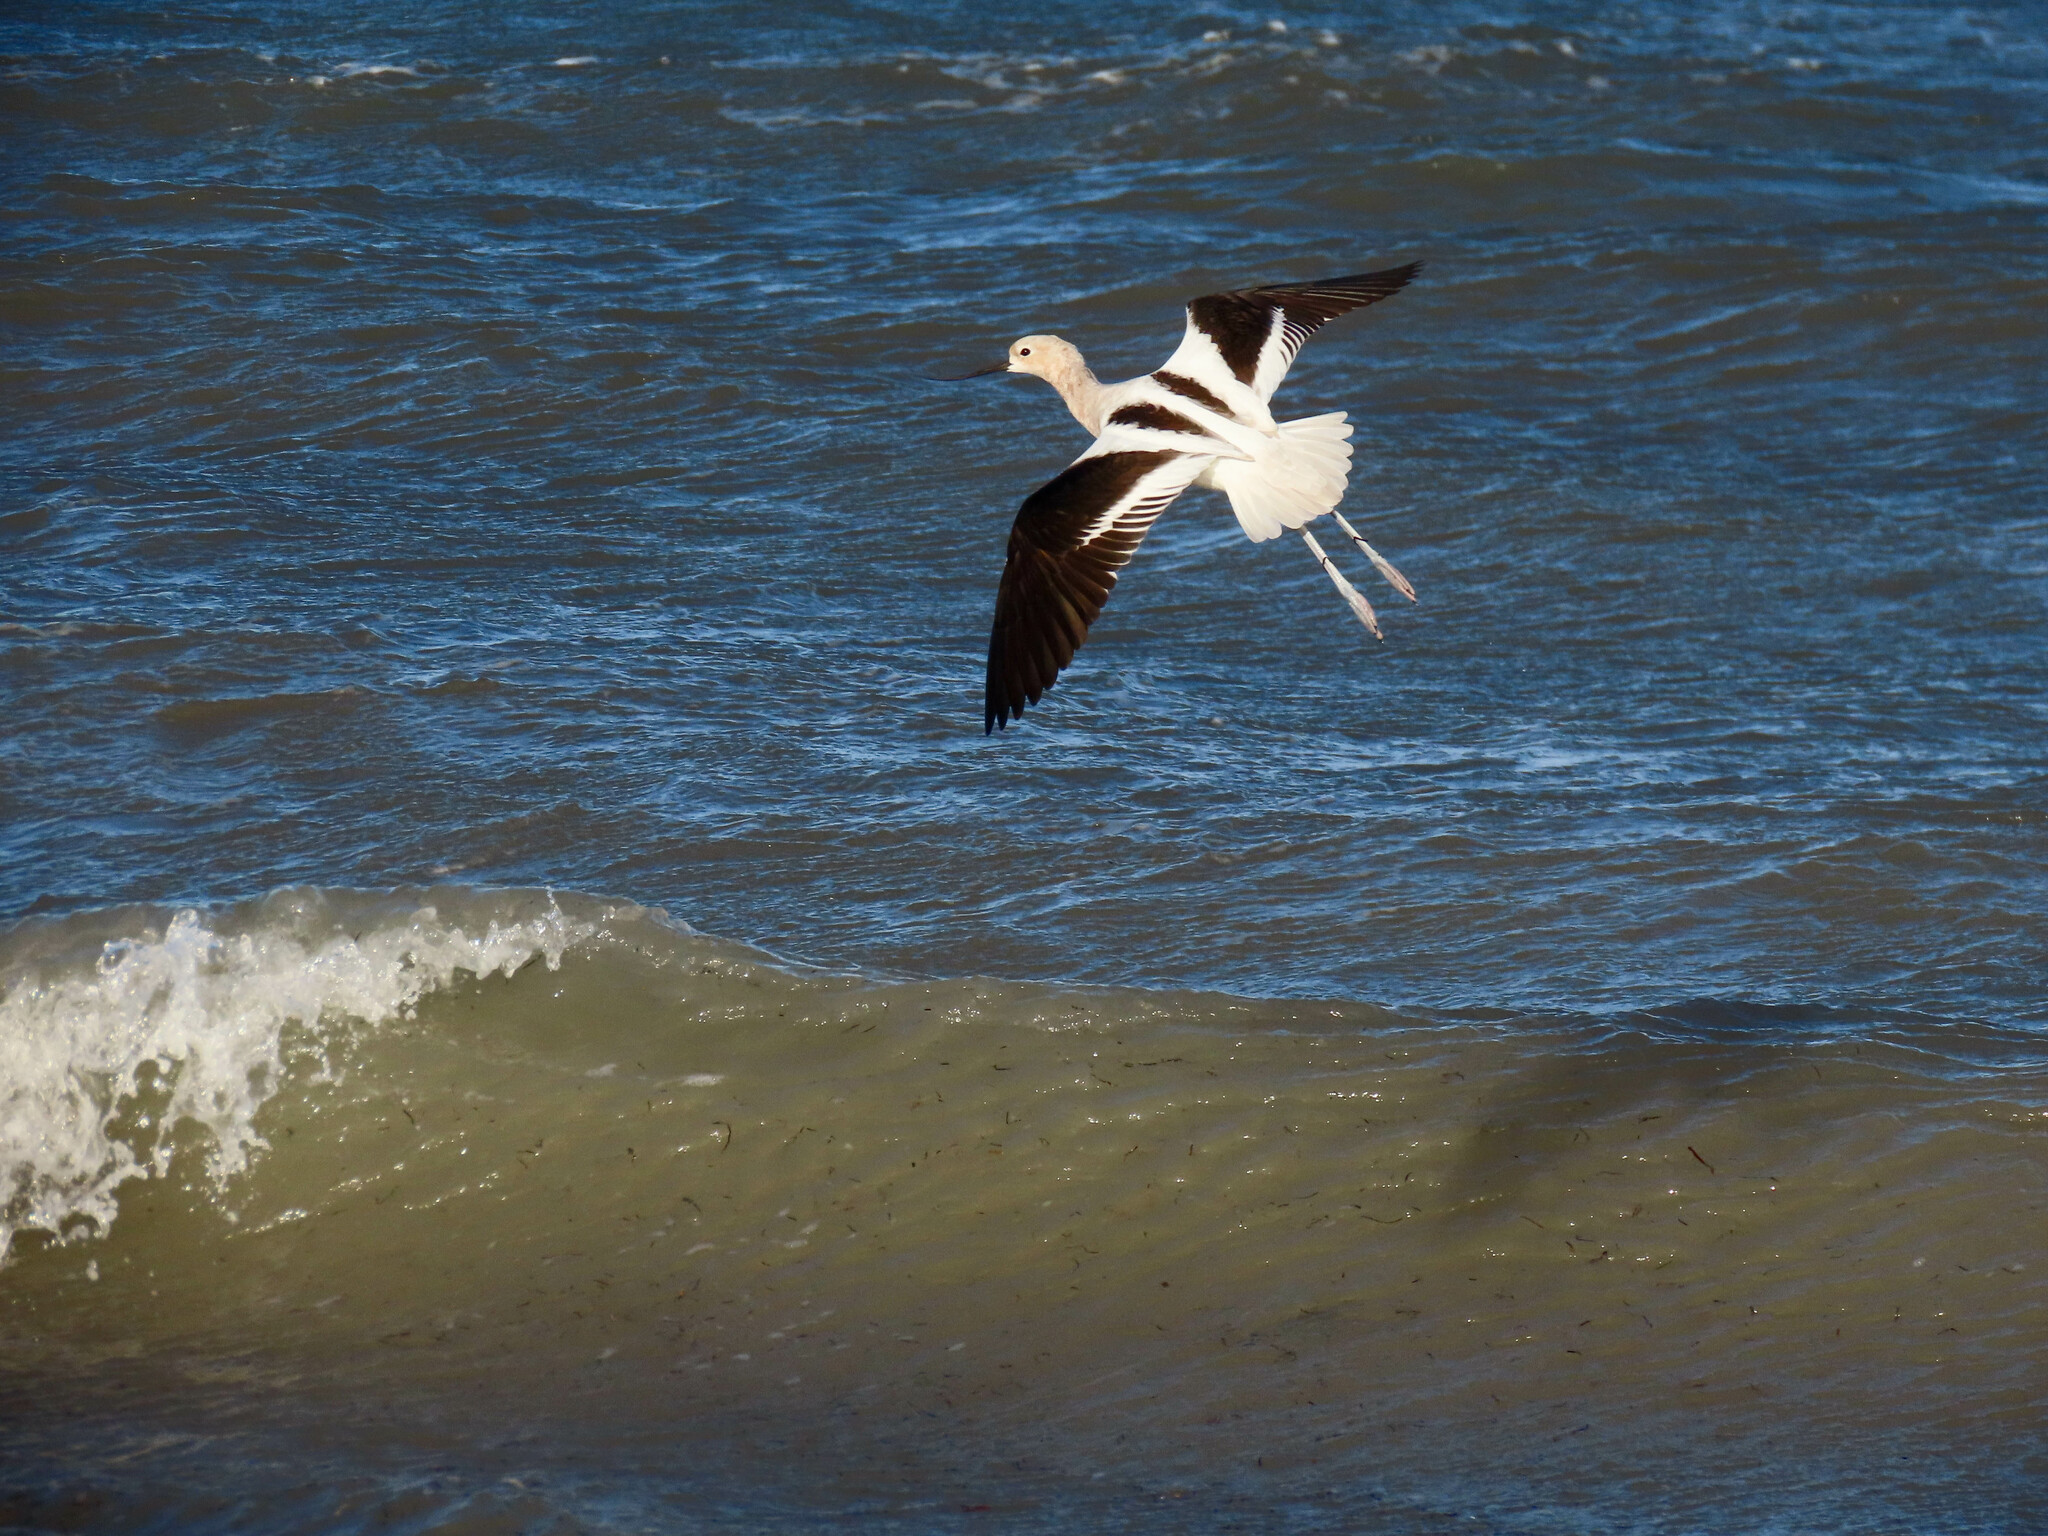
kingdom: Animalia
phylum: Chordata
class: Aves
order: Charadriiformes
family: Recurvirostridae
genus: Recurvirostra
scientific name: Recurvirostra americana
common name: American avocet
